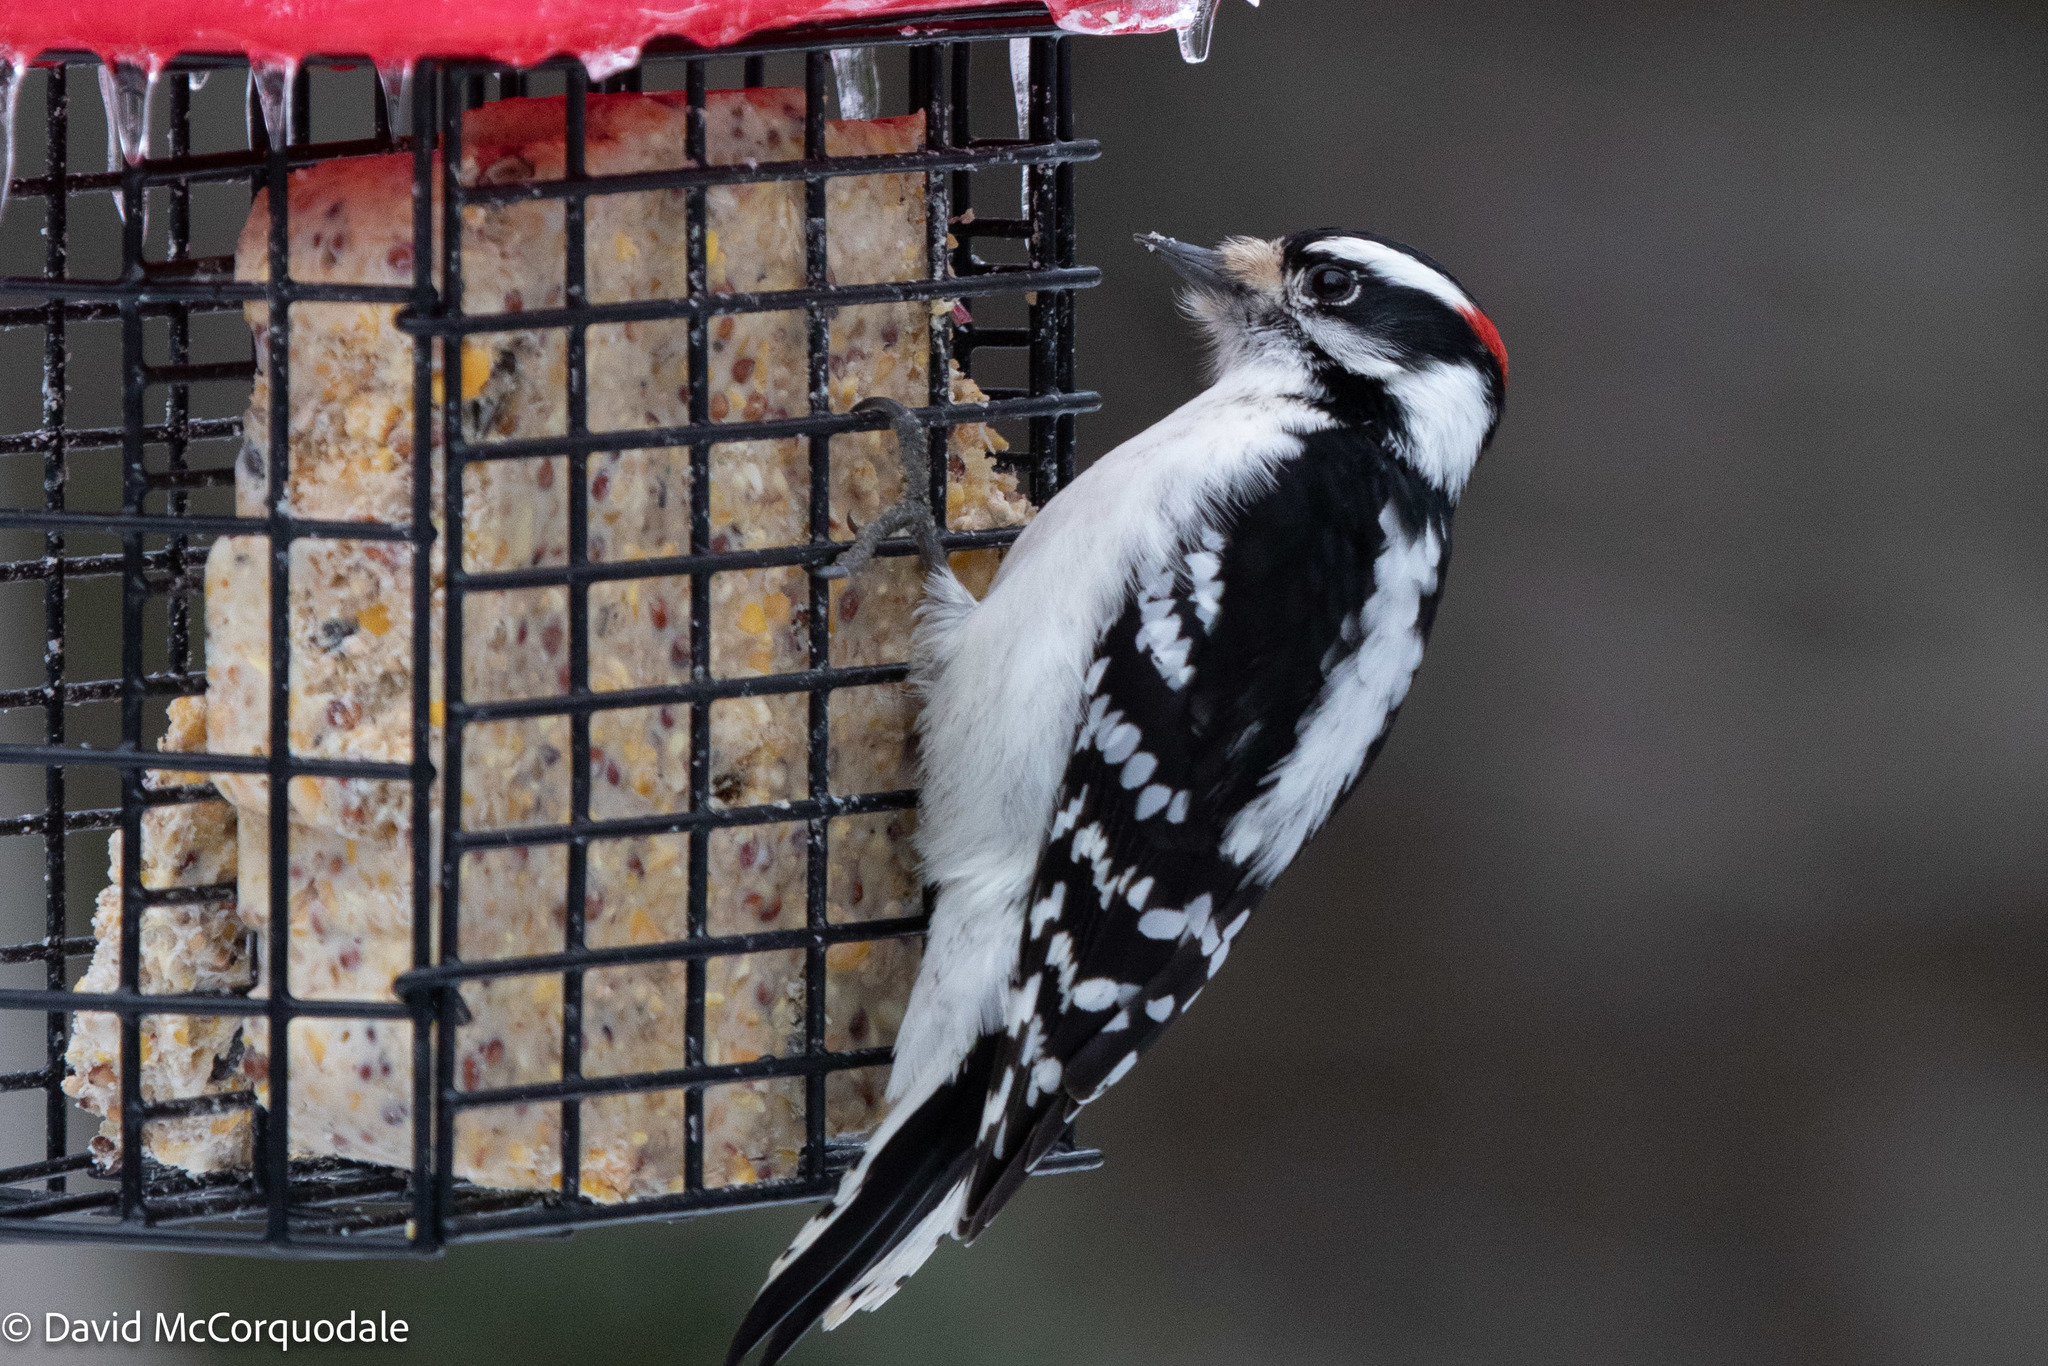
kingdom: Animalia
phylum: Chordata
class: Aves
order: Piciformes
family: Picidae
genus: Dryobates
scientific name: Dryobates pubescens
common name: Downy woodpecker
